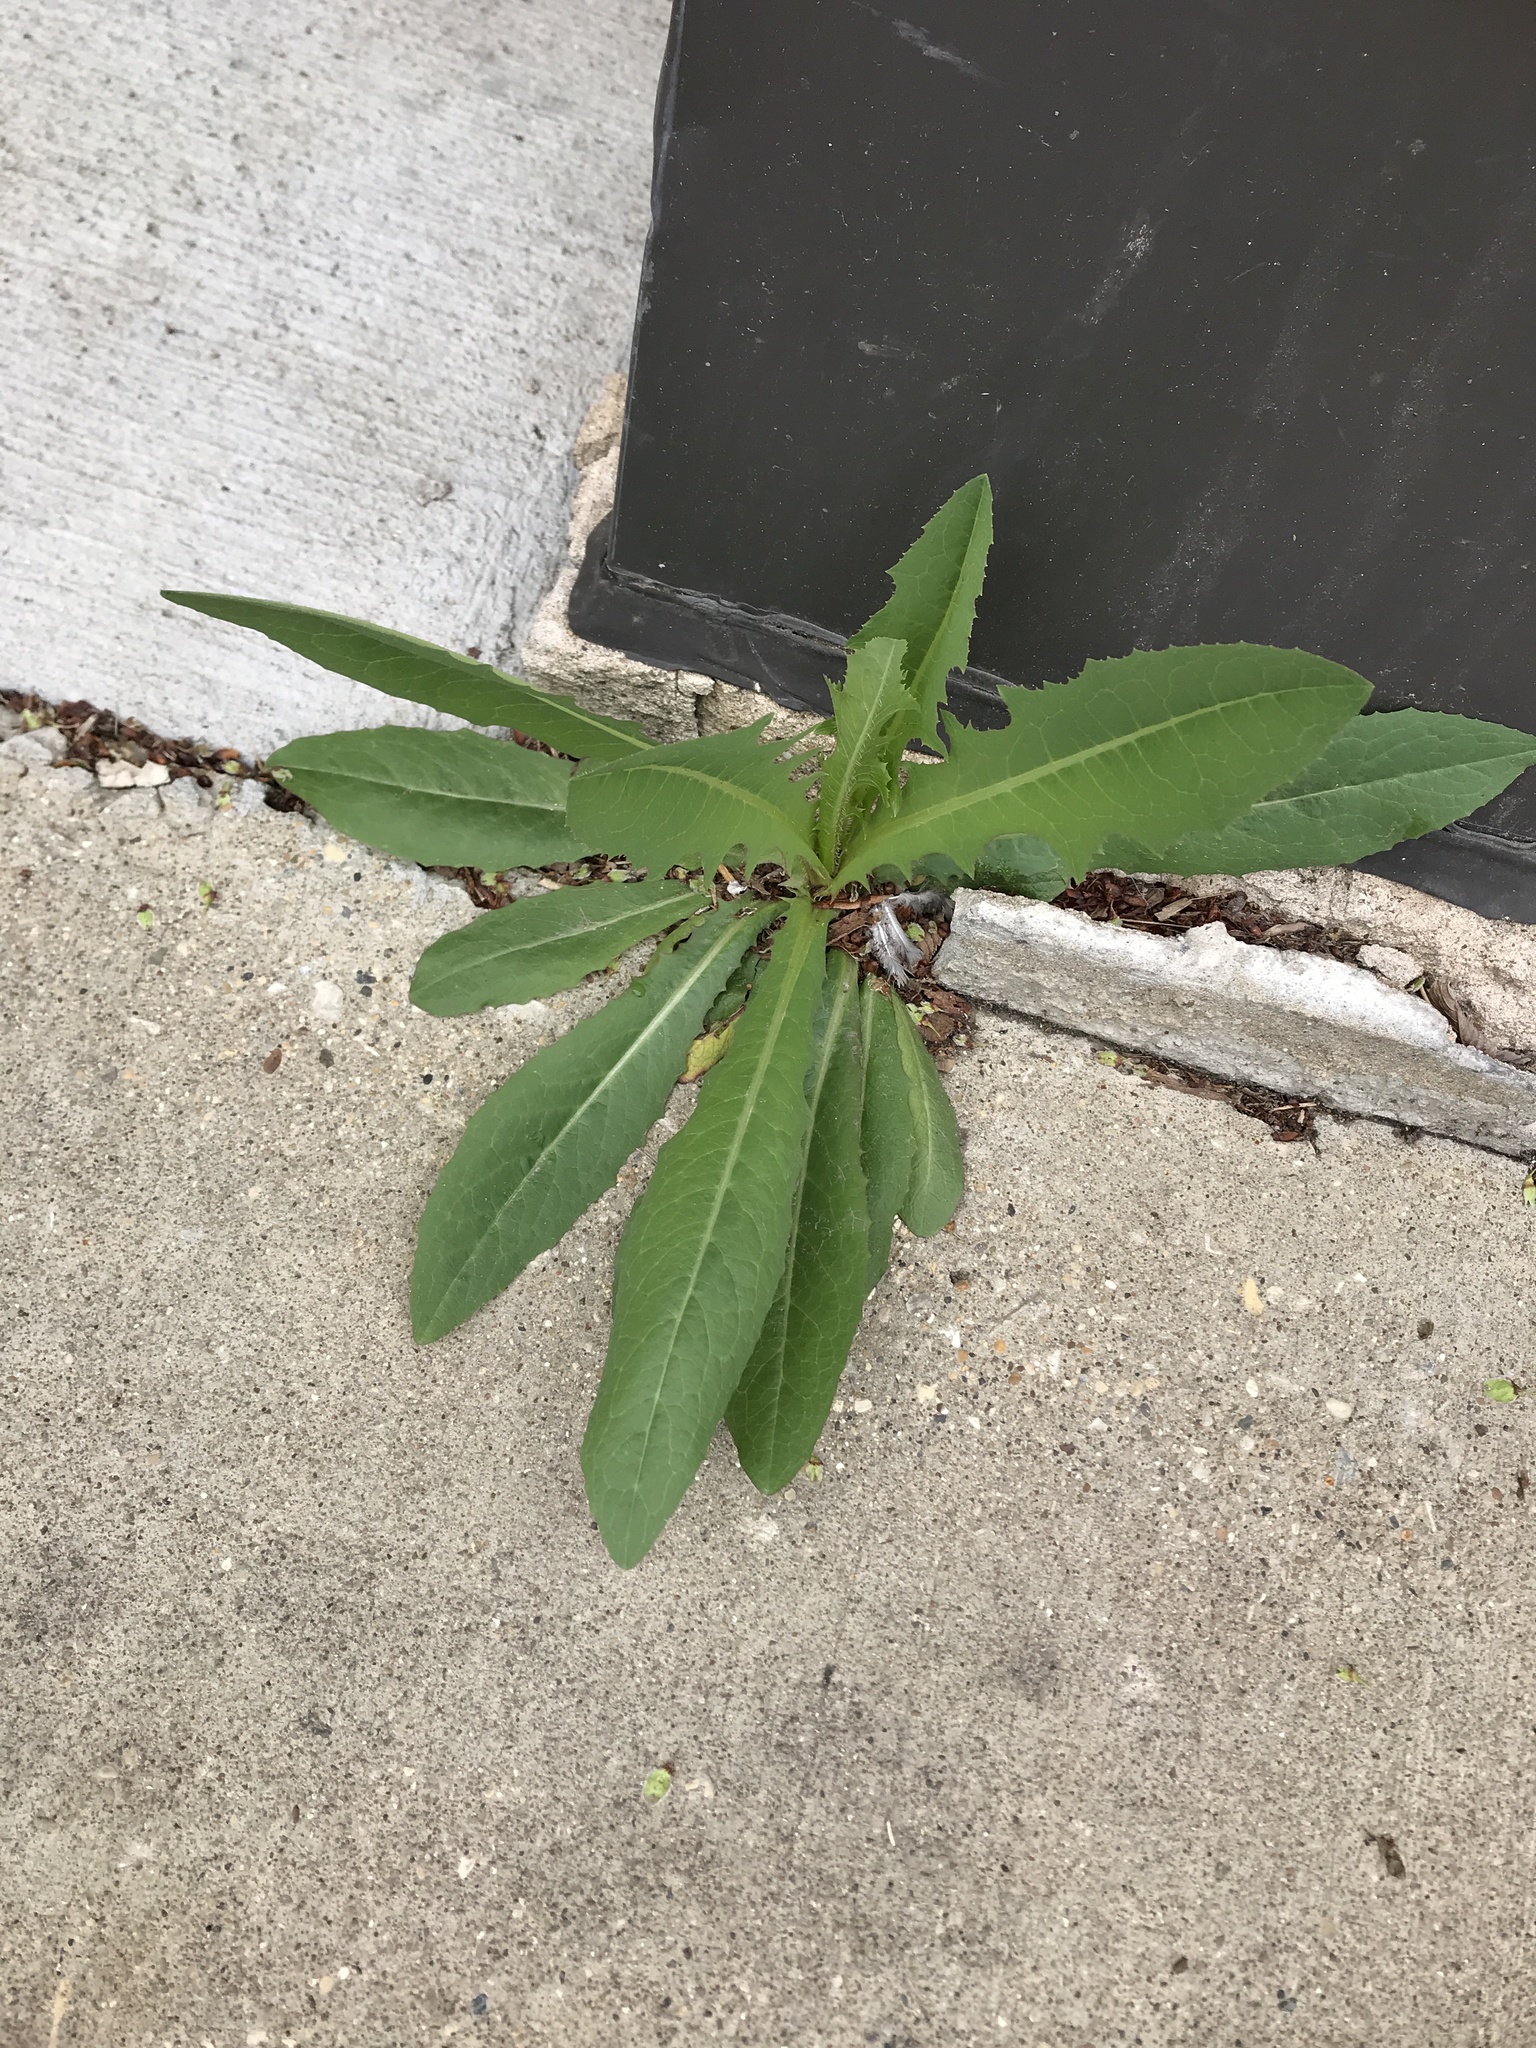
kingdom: Plantae
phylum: Tracheophyta
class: Magnoliopsida
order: Asterales
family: Asteraceae
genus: Lactuca
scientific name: Lactuca serriola
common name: Prickly lettuce
